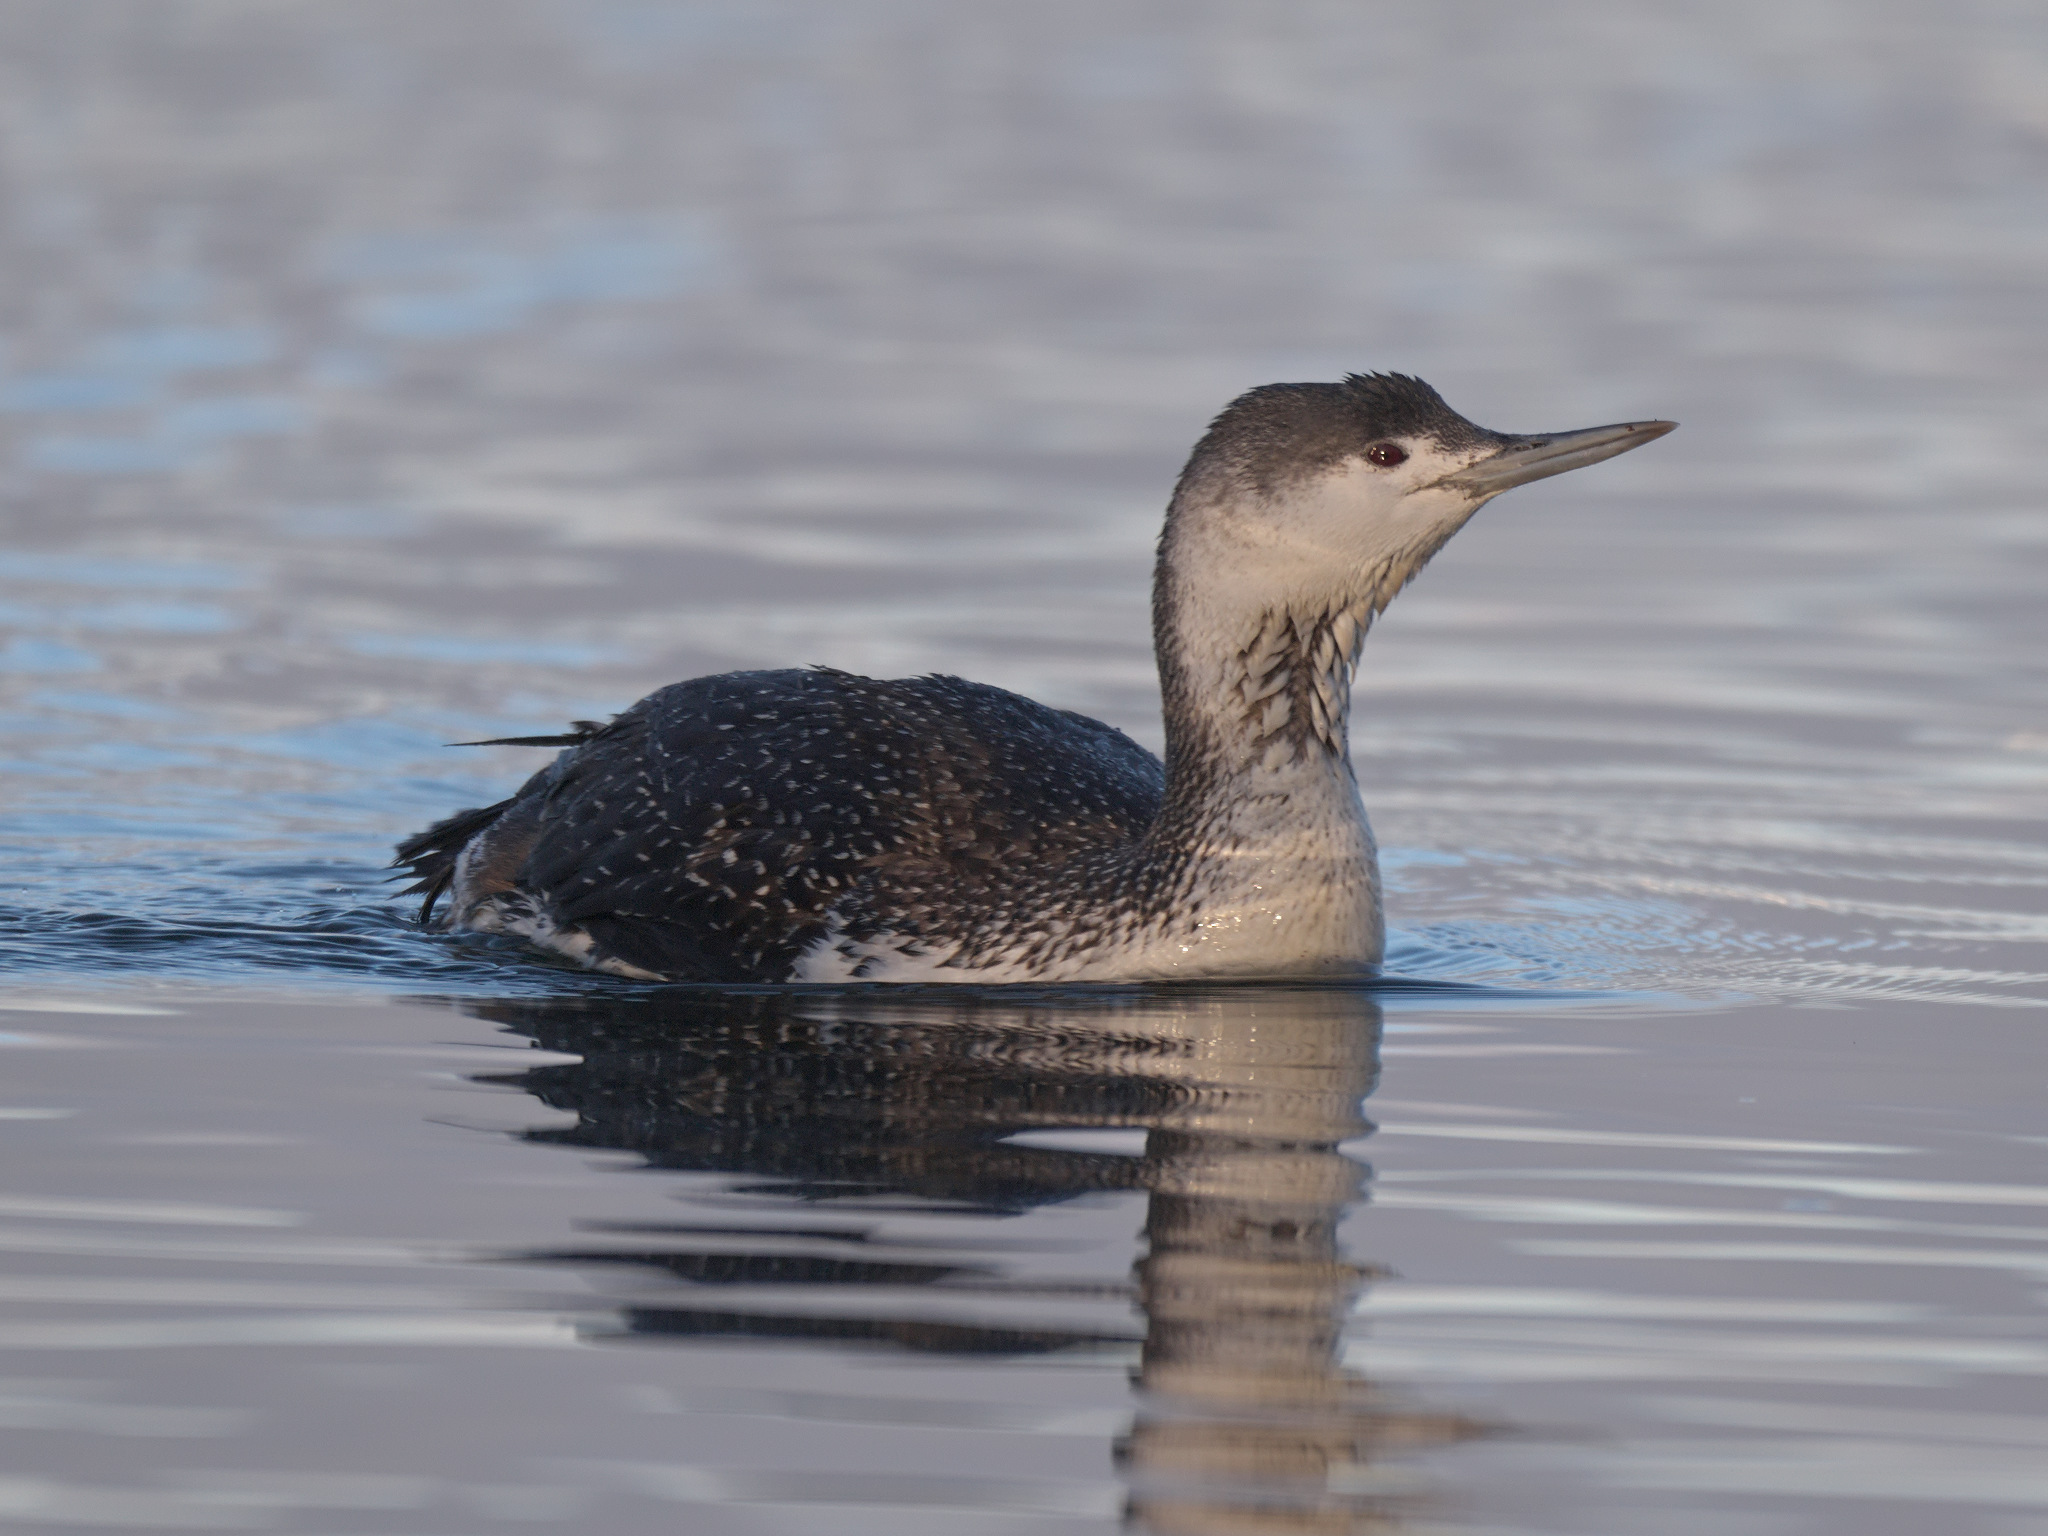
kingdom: Animalia
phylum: Chordata
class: Aves
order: Gaviiformes
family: Gaviidae
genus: Gavia
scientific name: Gavia stellata
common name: Red-throated loon
